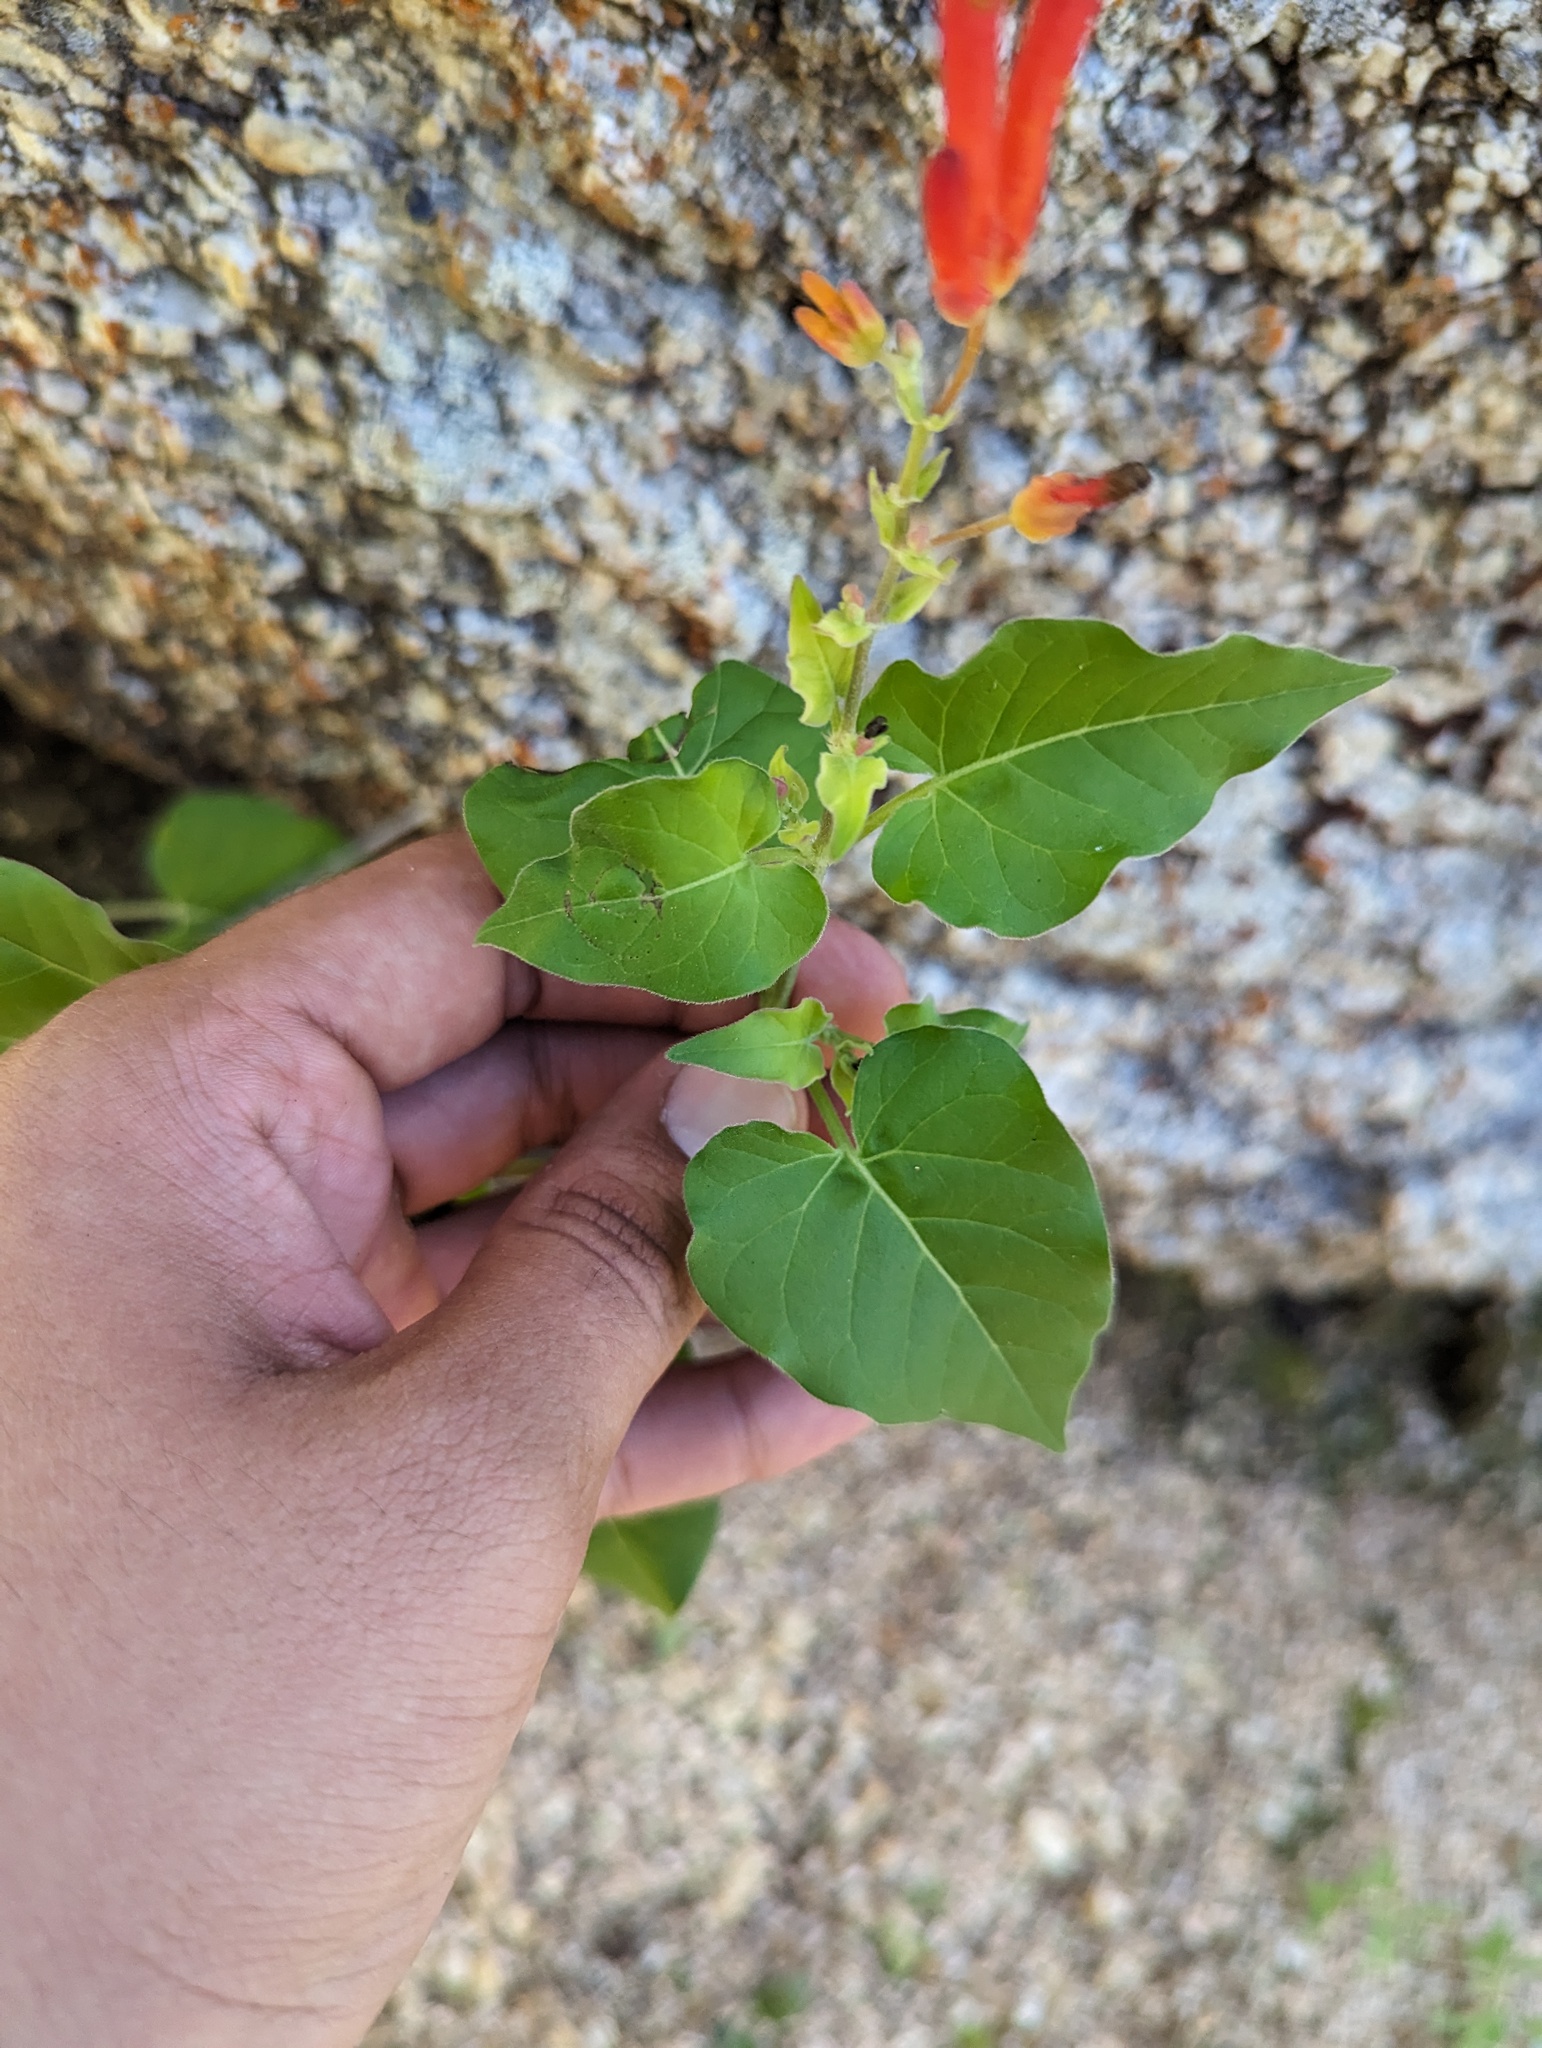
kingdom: Plantae
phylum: Tracheophyta
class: Magnoliopsida
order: Caryophyllales
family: Nyctaginaceae
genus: Mirabilis
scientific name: Mirabilis triflora
